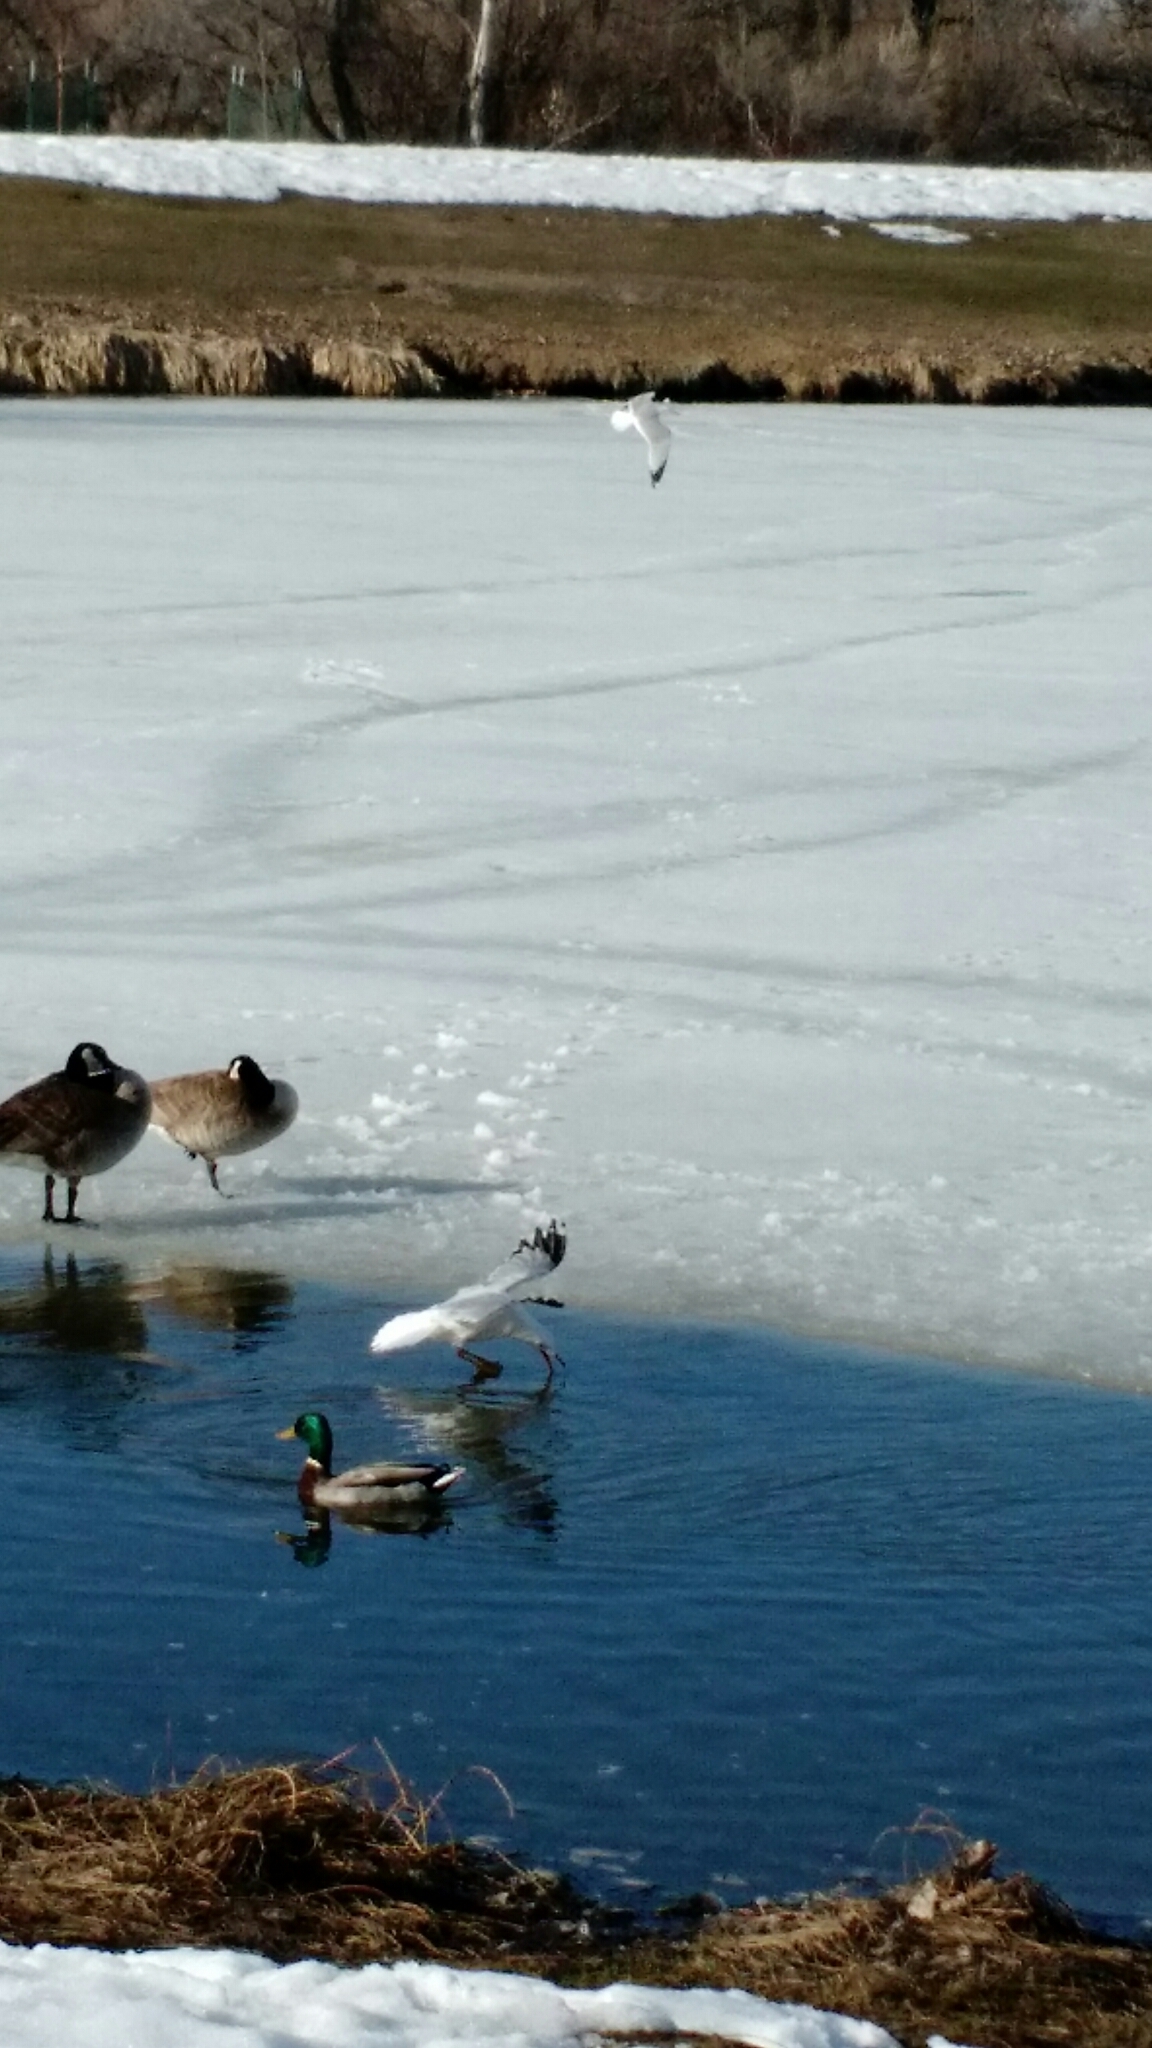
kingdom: Animalia
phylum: Chordata
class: Aves
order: Charadriiformes
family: Laridae
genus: Larus
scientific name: Larus delawarensis
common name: Ring-billed gull
